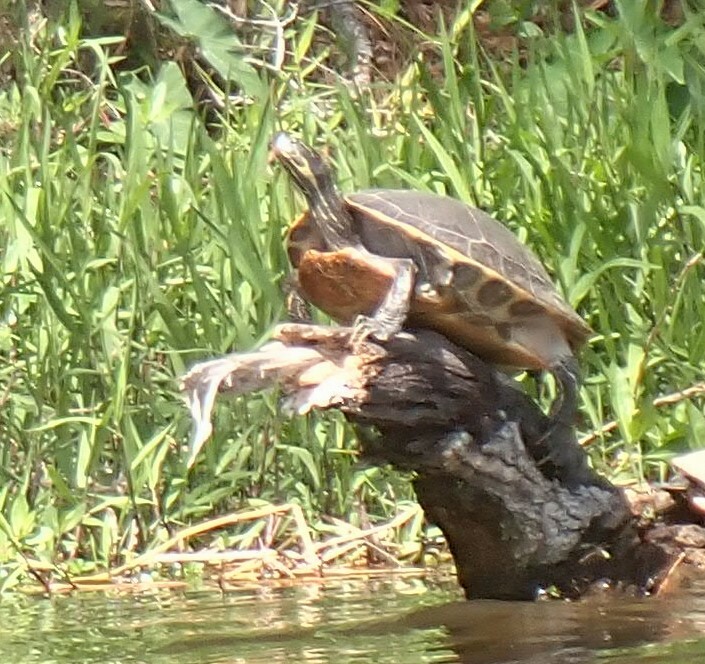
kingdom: Animalia
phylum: Chordata
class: Testudines
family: Emydidae
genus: Pseudemys
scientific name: Pseudemys concinna
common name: Eastern river cooter
